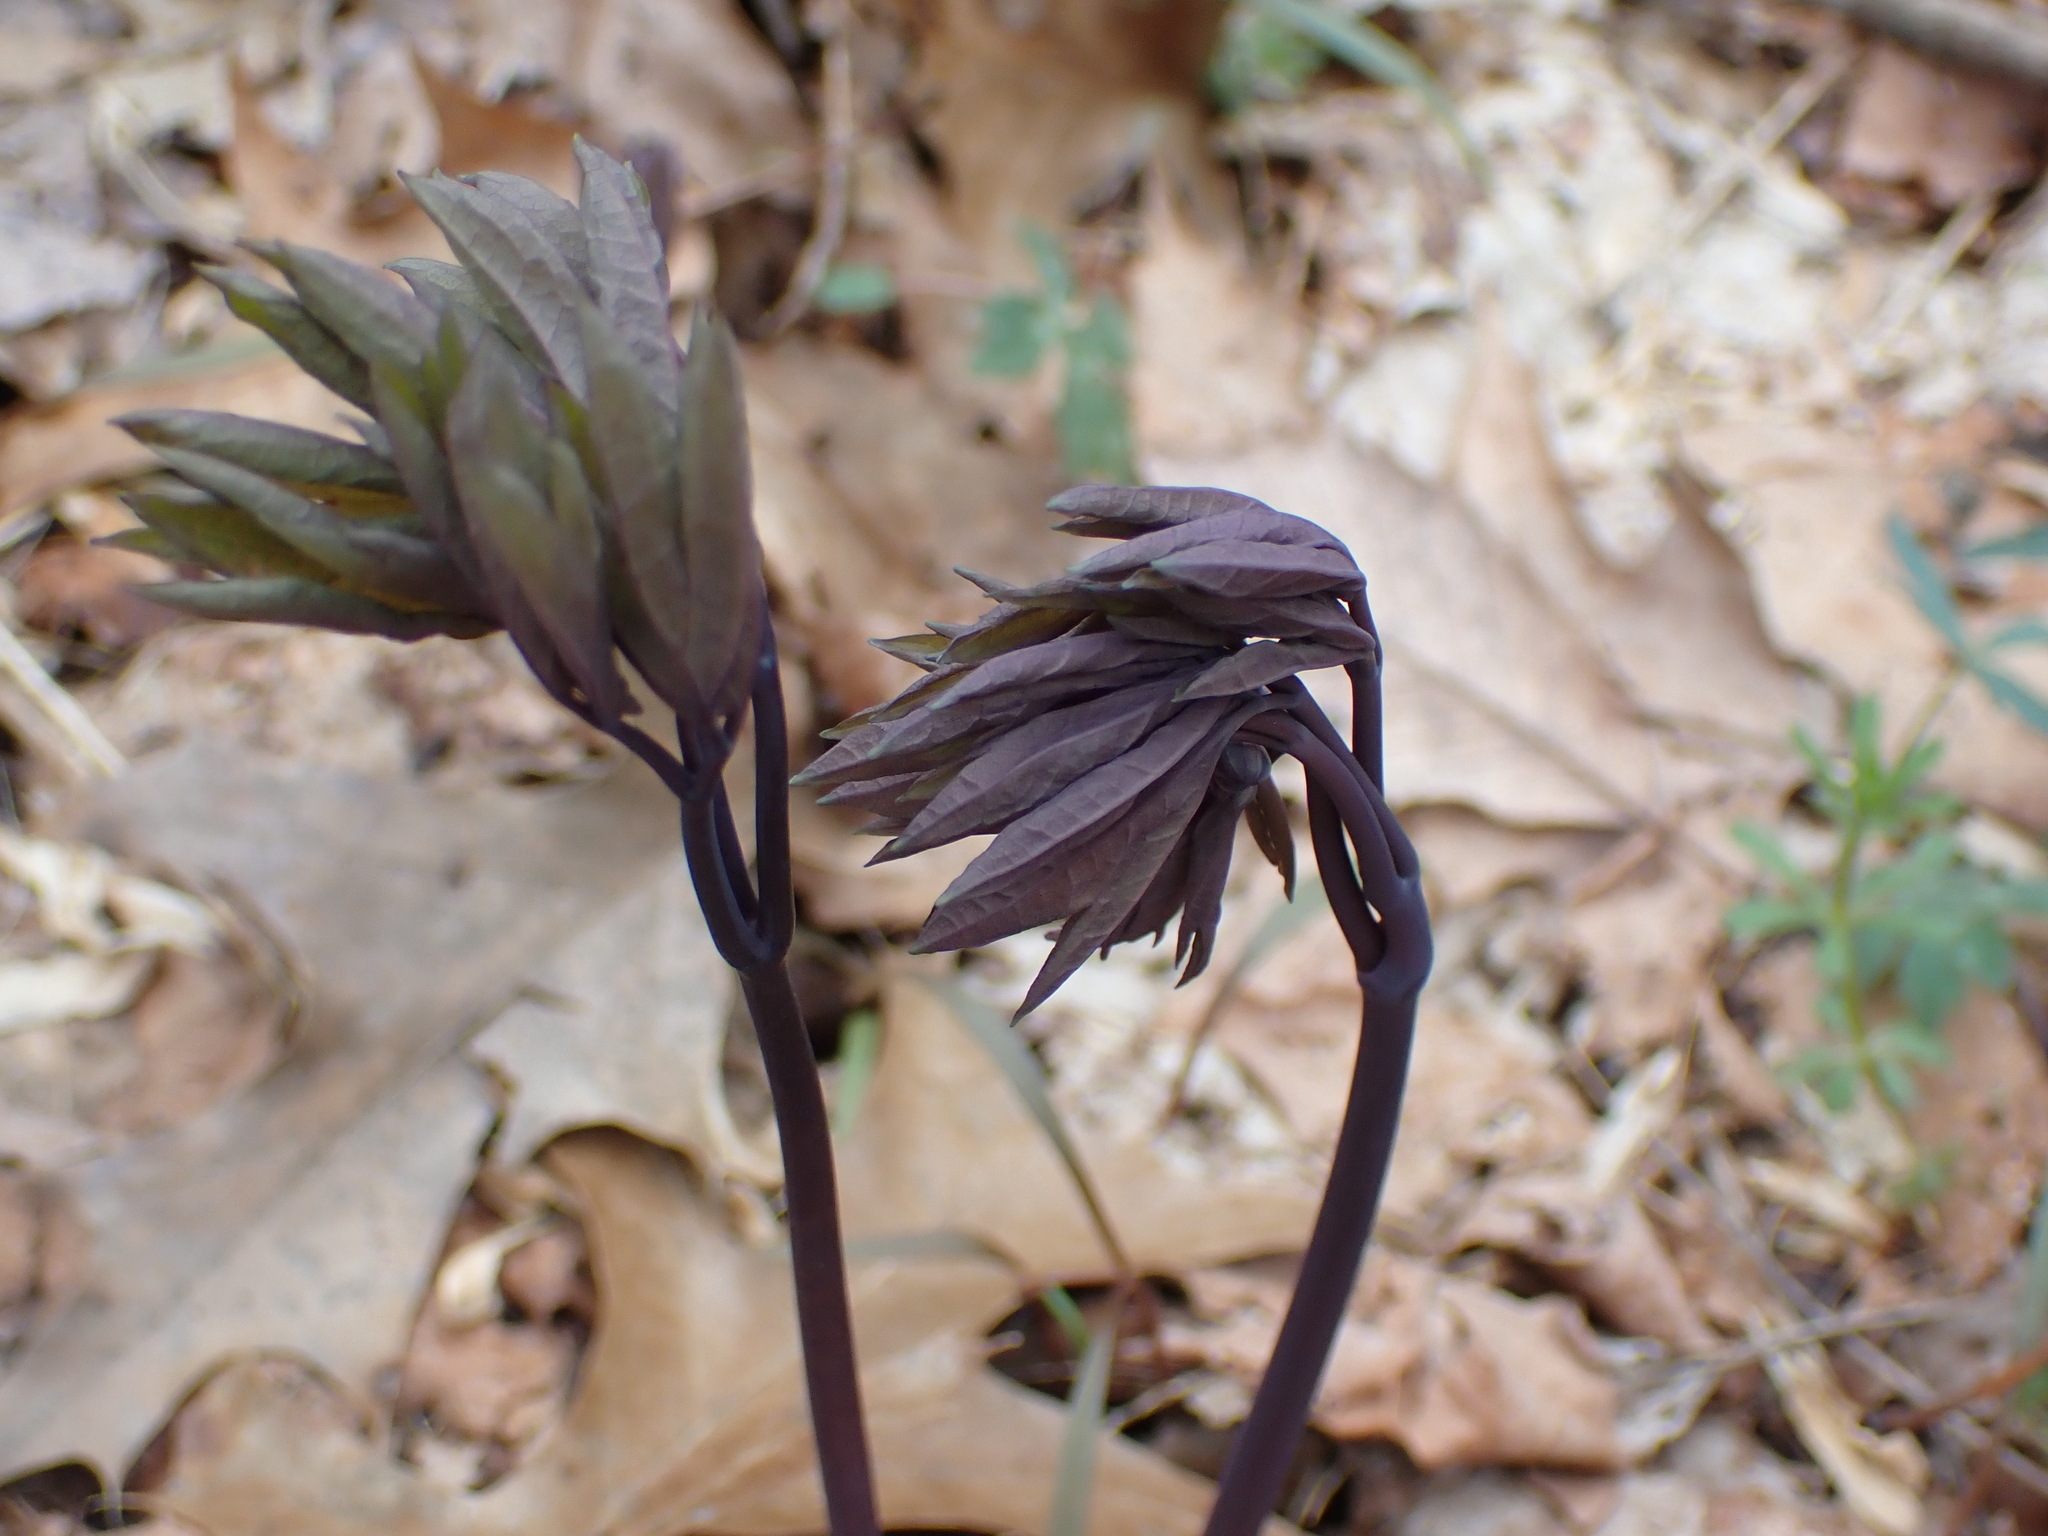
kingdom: Plantae
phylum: Tracheophyta
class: Magnoliopsida
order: Ranunculales
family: Berberidaceae
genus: Caulophyllum
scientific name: Caulophyllum giganteum
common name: Blue cohosh
